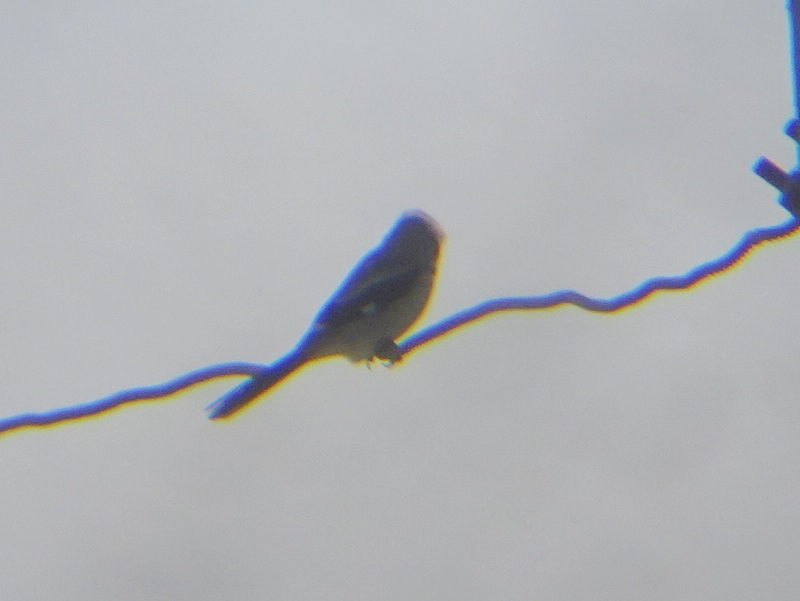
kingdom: Animalia
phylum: Chordata
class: Aves
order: Passeriformes
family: Laniidae
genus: Lanius
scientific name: Lanius ludovicianus
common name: Loggerhead shrike
